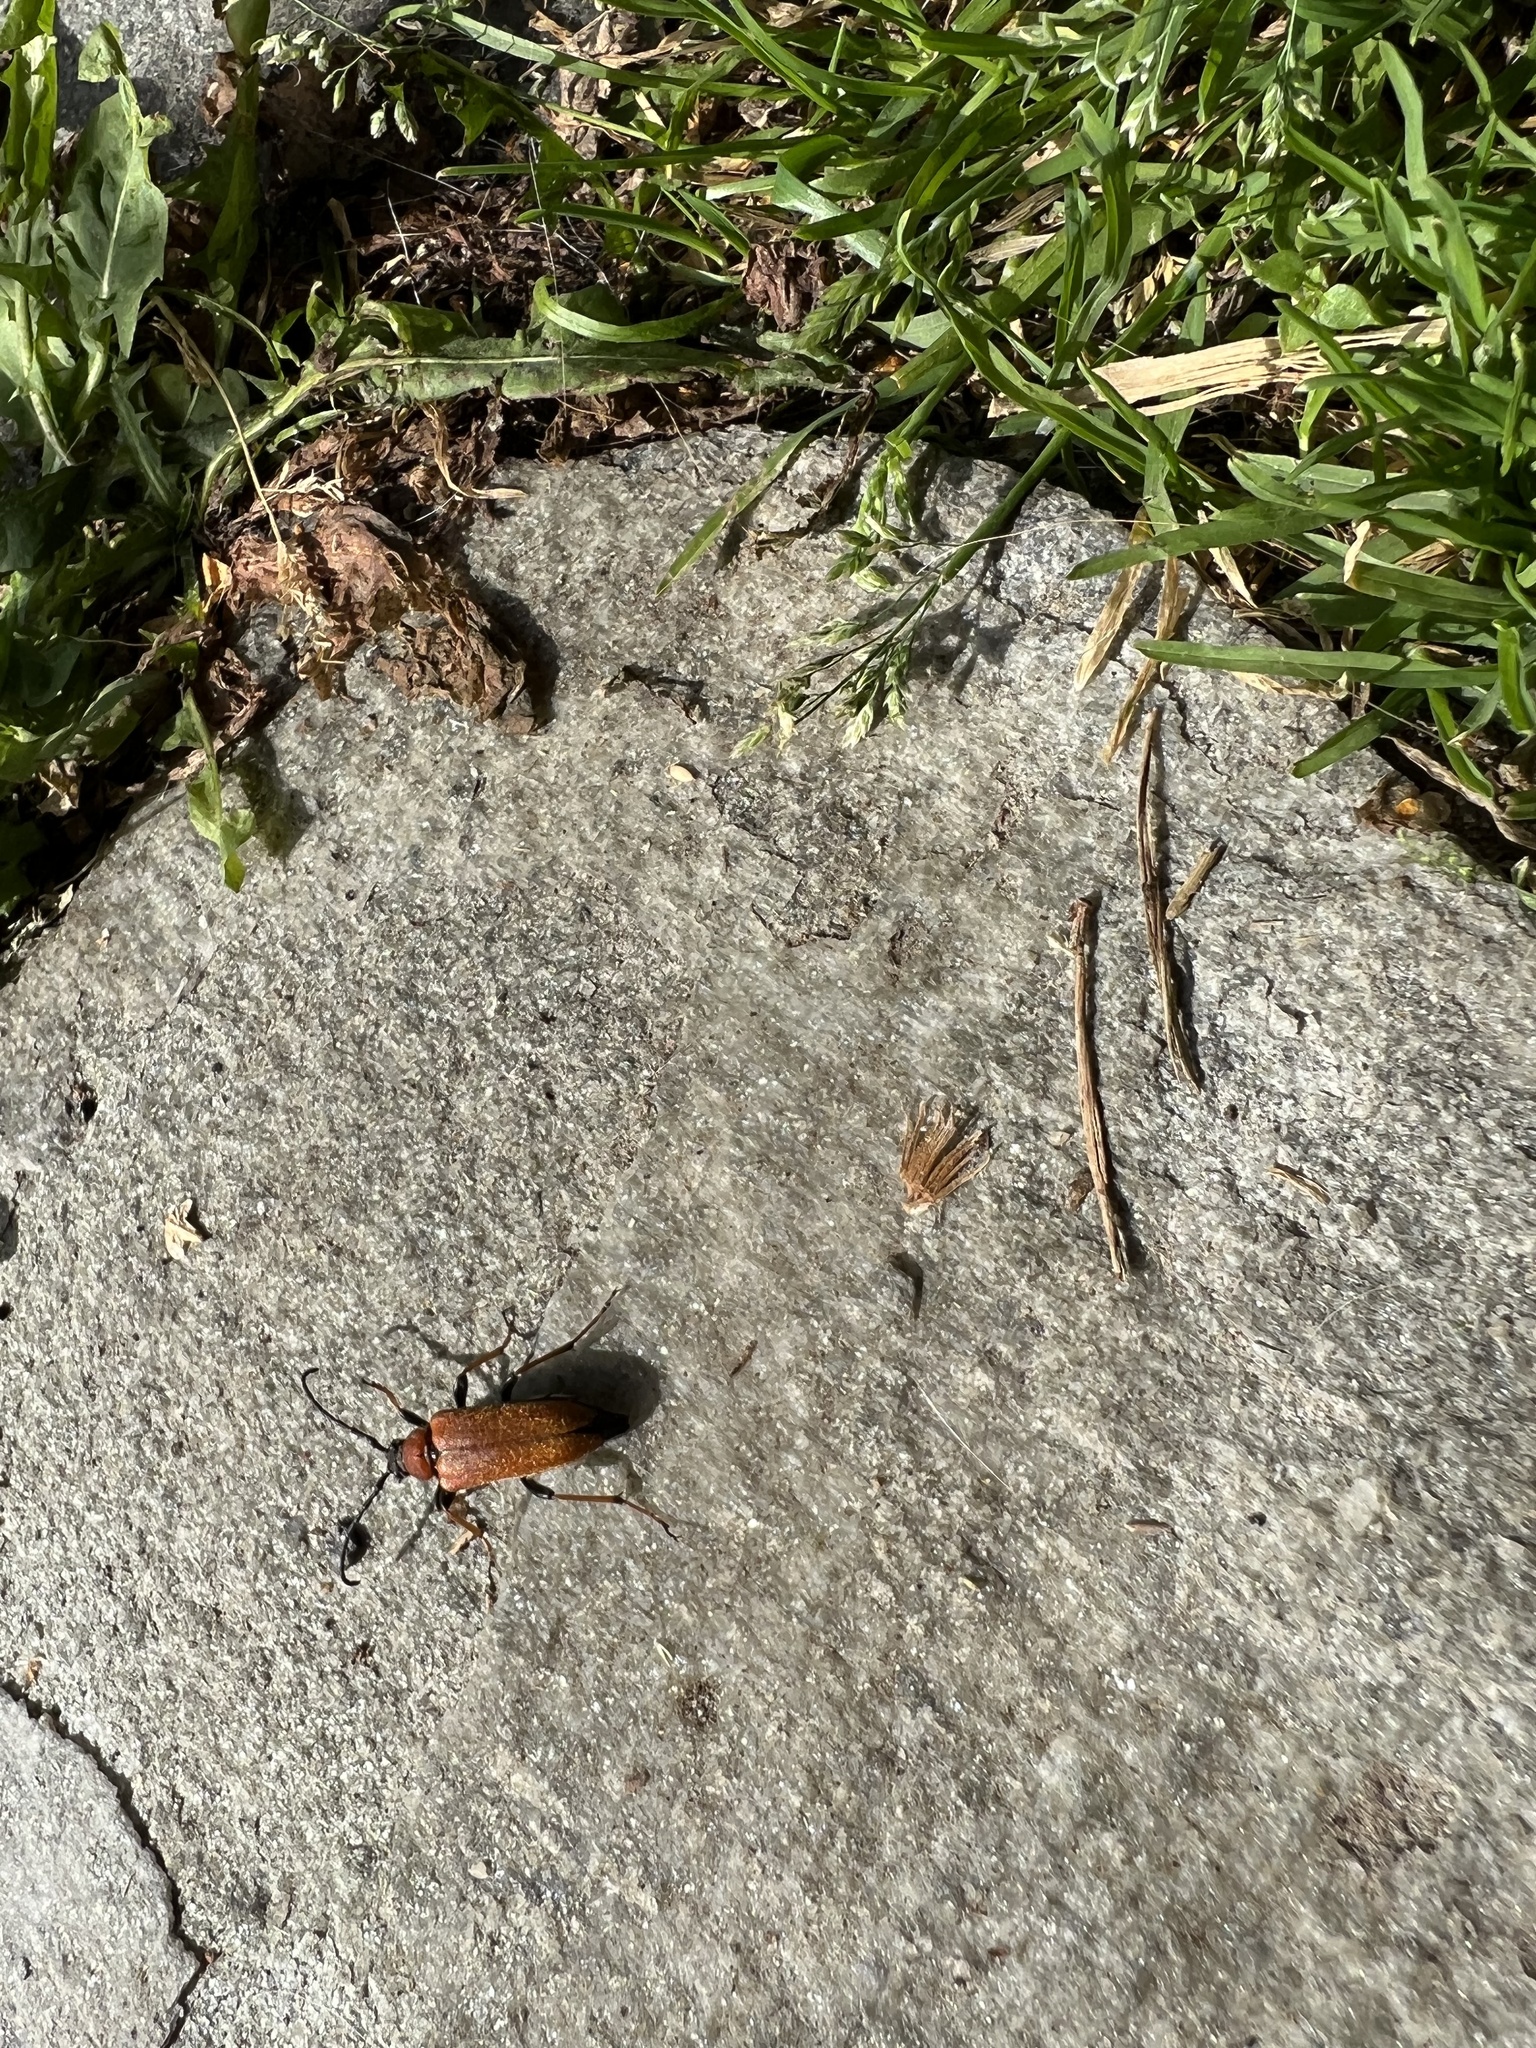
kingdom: Animalia
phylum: Arthropoda
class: Insecta
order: Coleoptera
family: Cerambycidae
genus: Stictoleptura
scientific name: Stictoleptura rubra
